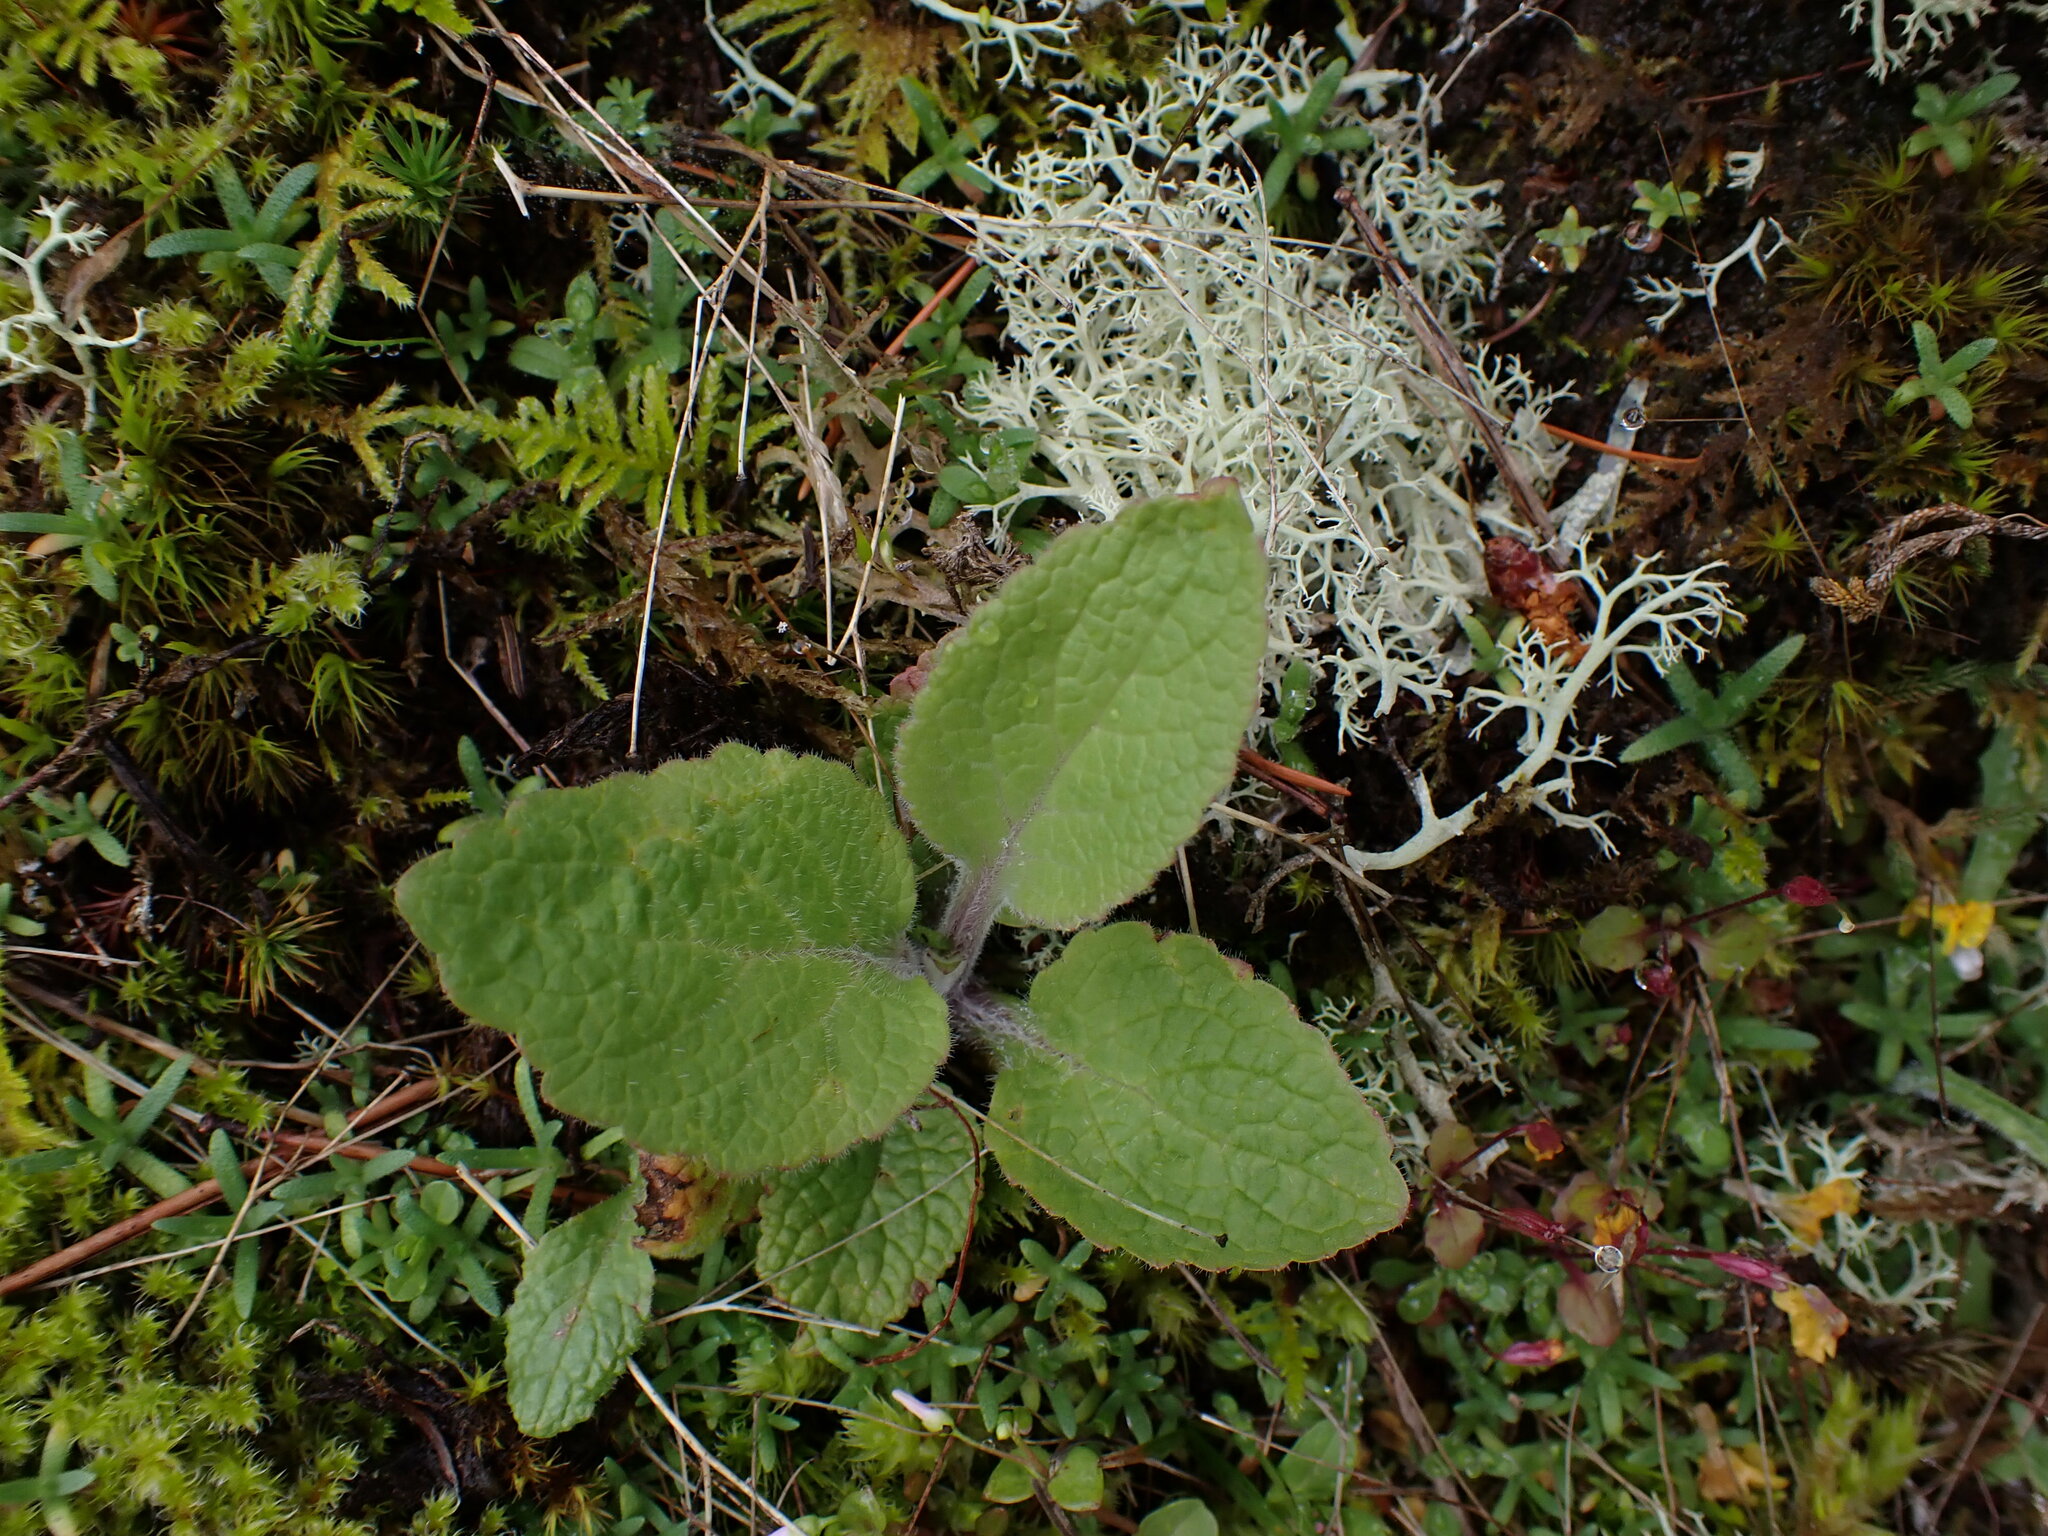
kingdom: Plantae
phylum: Tracheophyta
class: Magnoliopsida
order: Lamiales
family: Plantaginaceae
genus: Digitalis
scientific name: Digitalis purpurea
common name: Foxglove
